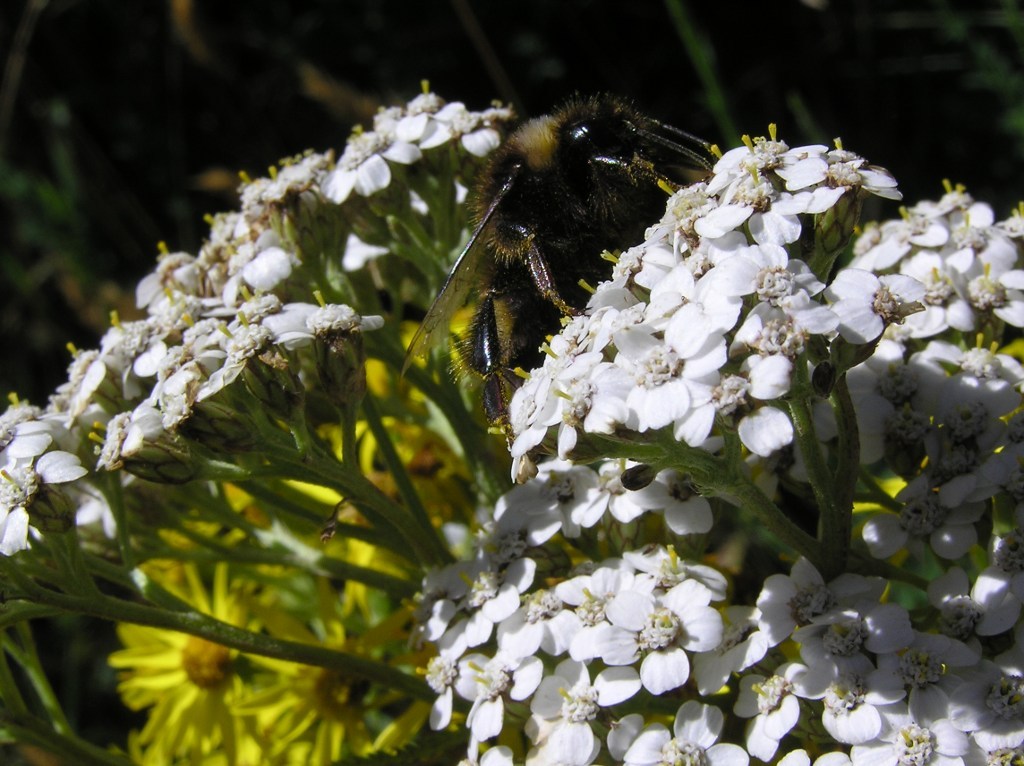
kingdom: Plantae
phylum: Tracheophyta
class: Magnoliopsida
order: Asterales
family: Asteraceae
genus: Achillea
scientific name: Achillea millefolium
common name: Yarrow
